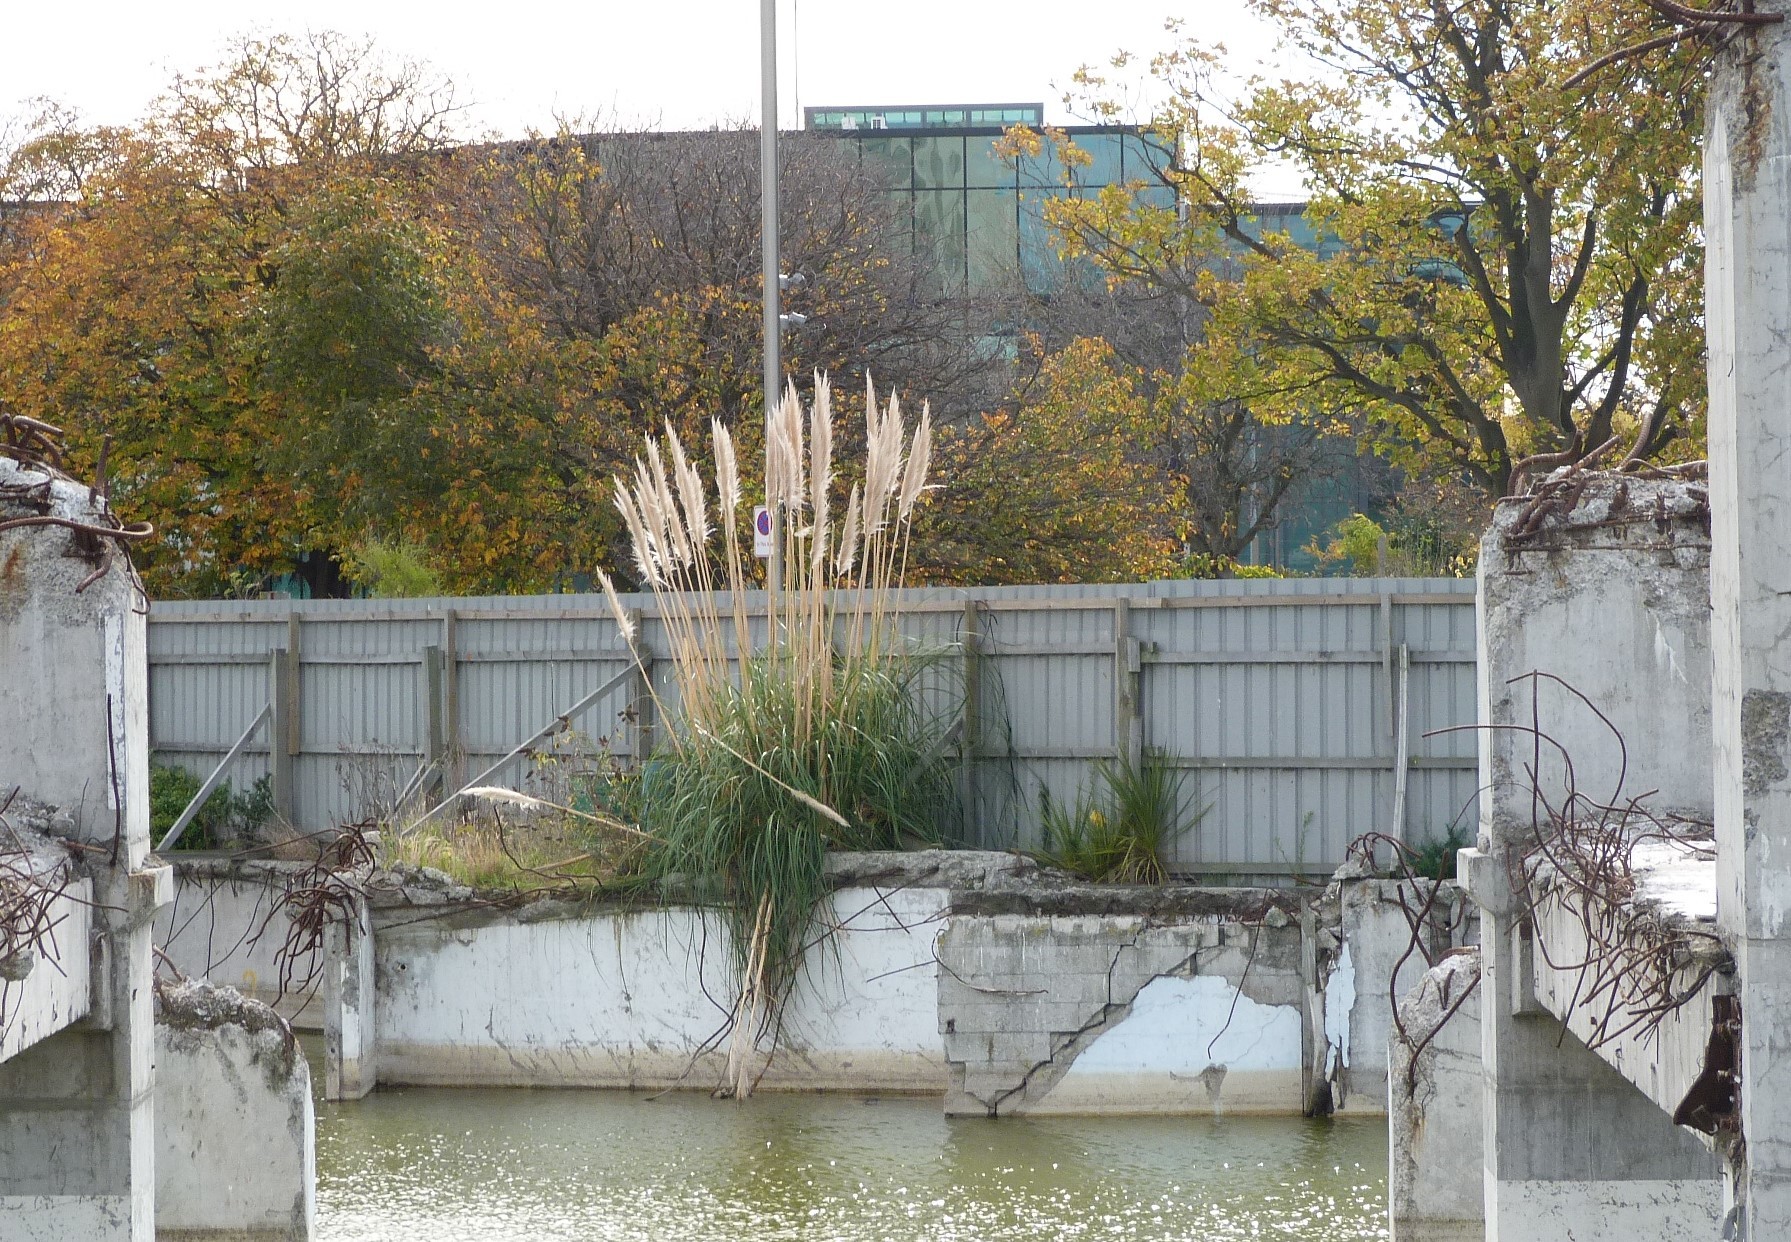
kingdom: Plantae
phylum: Tracheophyta
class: Liliopsida
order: Poales
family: Poaceae
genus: Cortaderia
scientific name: Cortaderia selloana
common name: Uruguayan pampas grass
